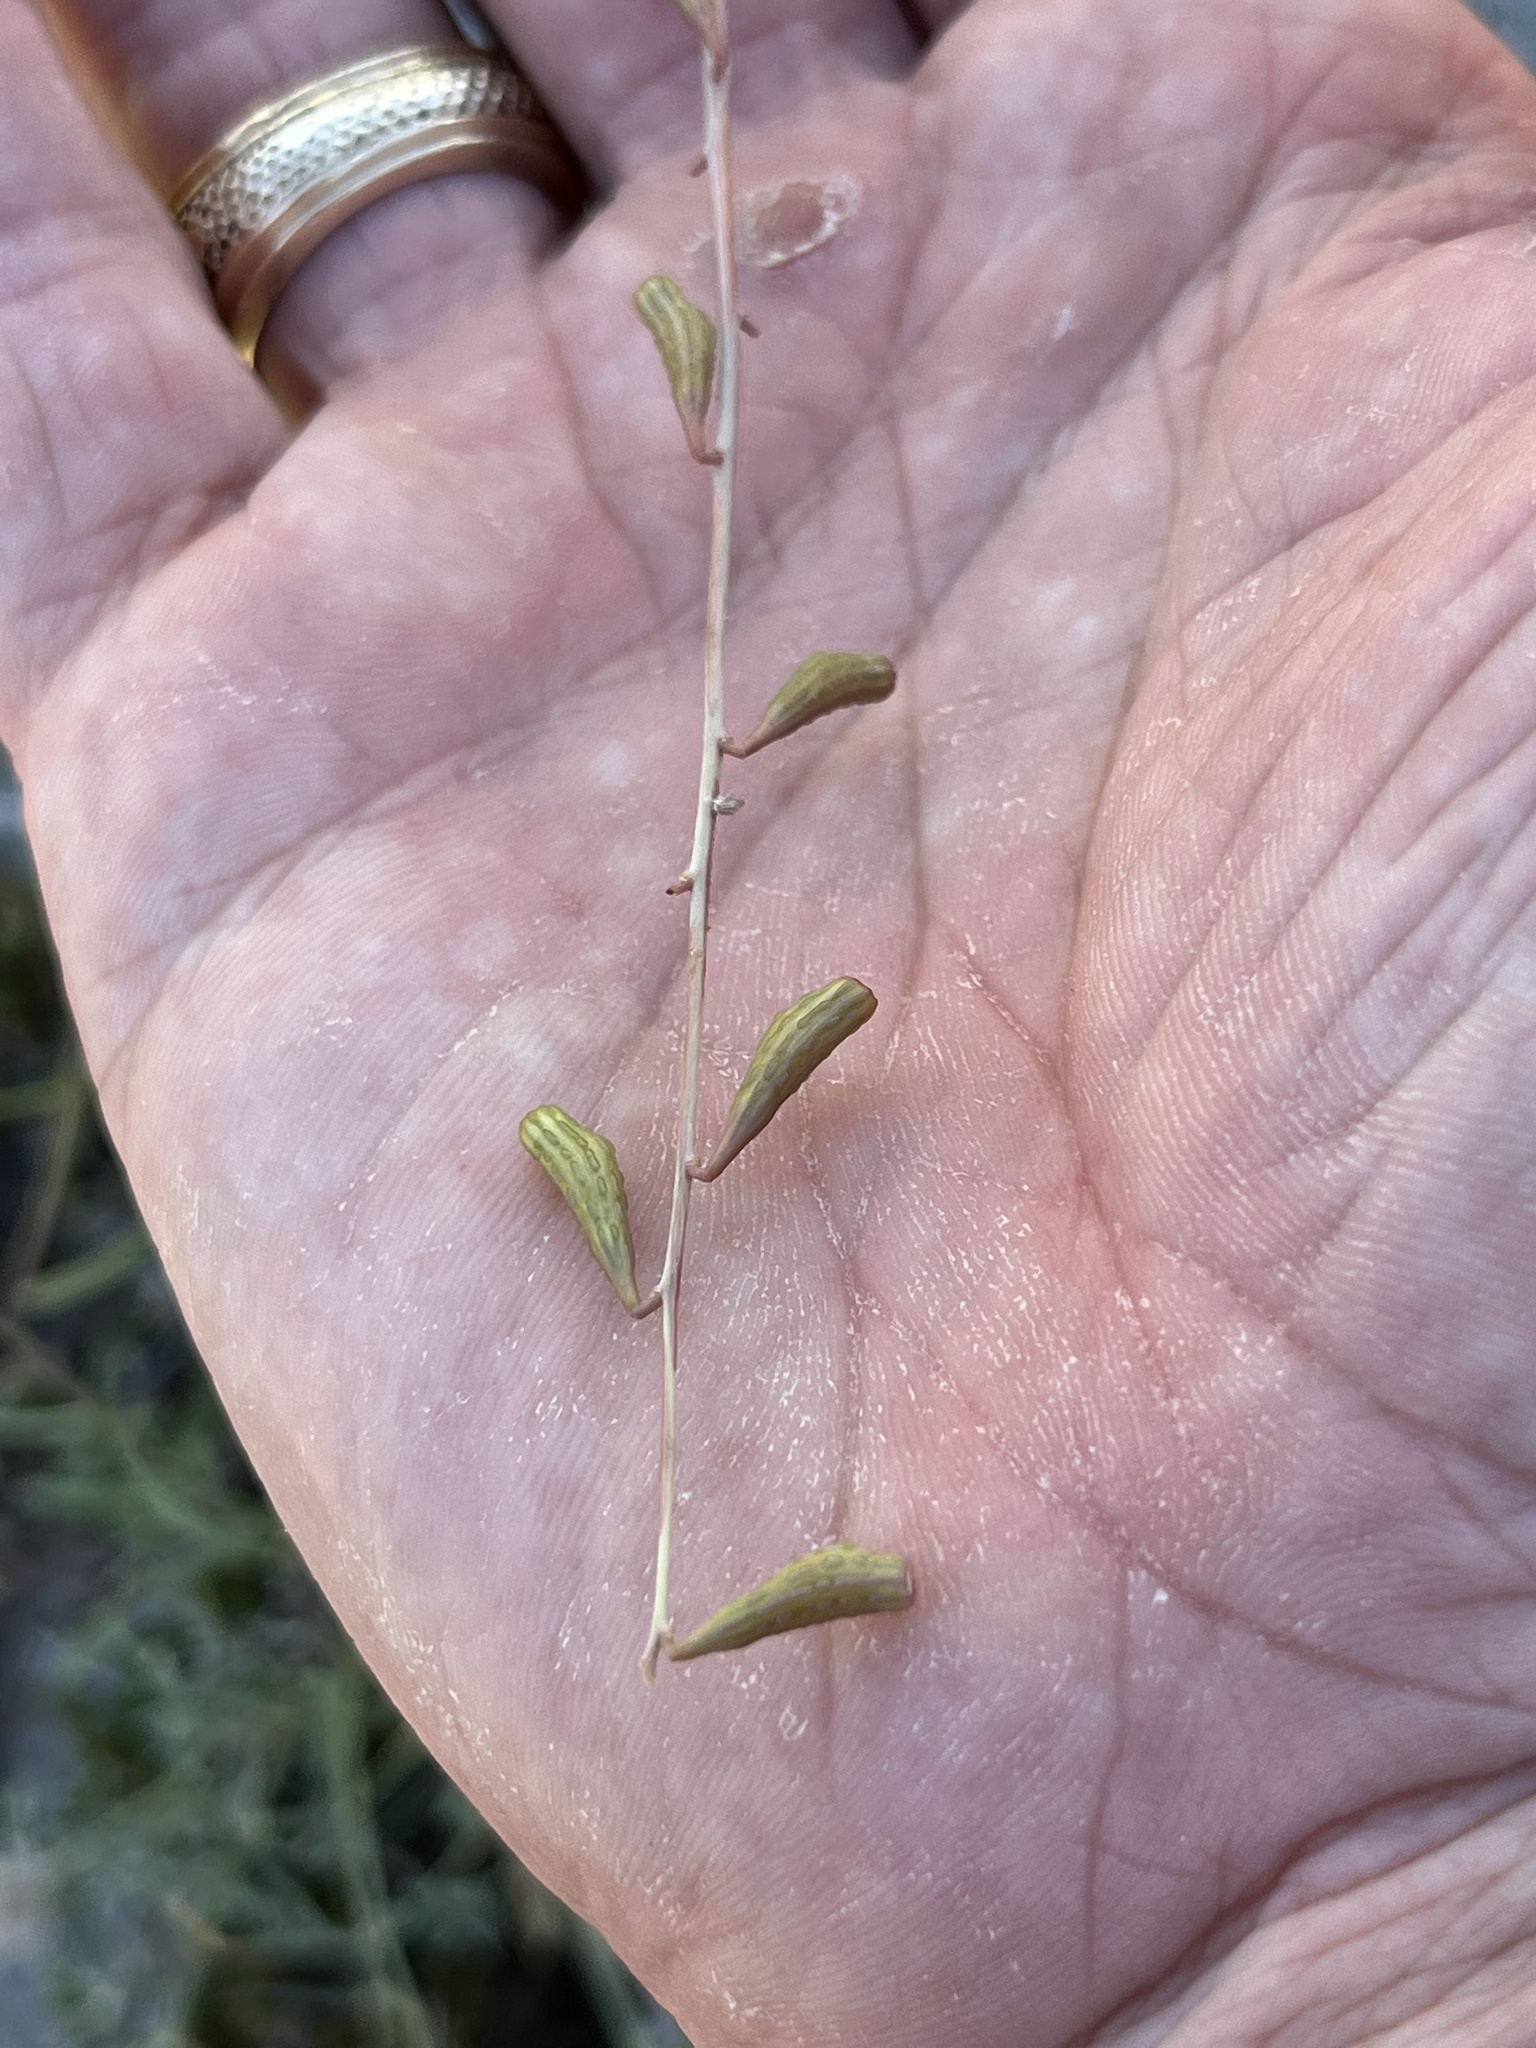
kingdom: Plantae
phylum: Tracheophyta
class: Magnoliopsida
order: Caryophyllales
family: Nyctaginaceae
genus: Cyphomeris
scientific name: Cyphomeris gypsophiloides
